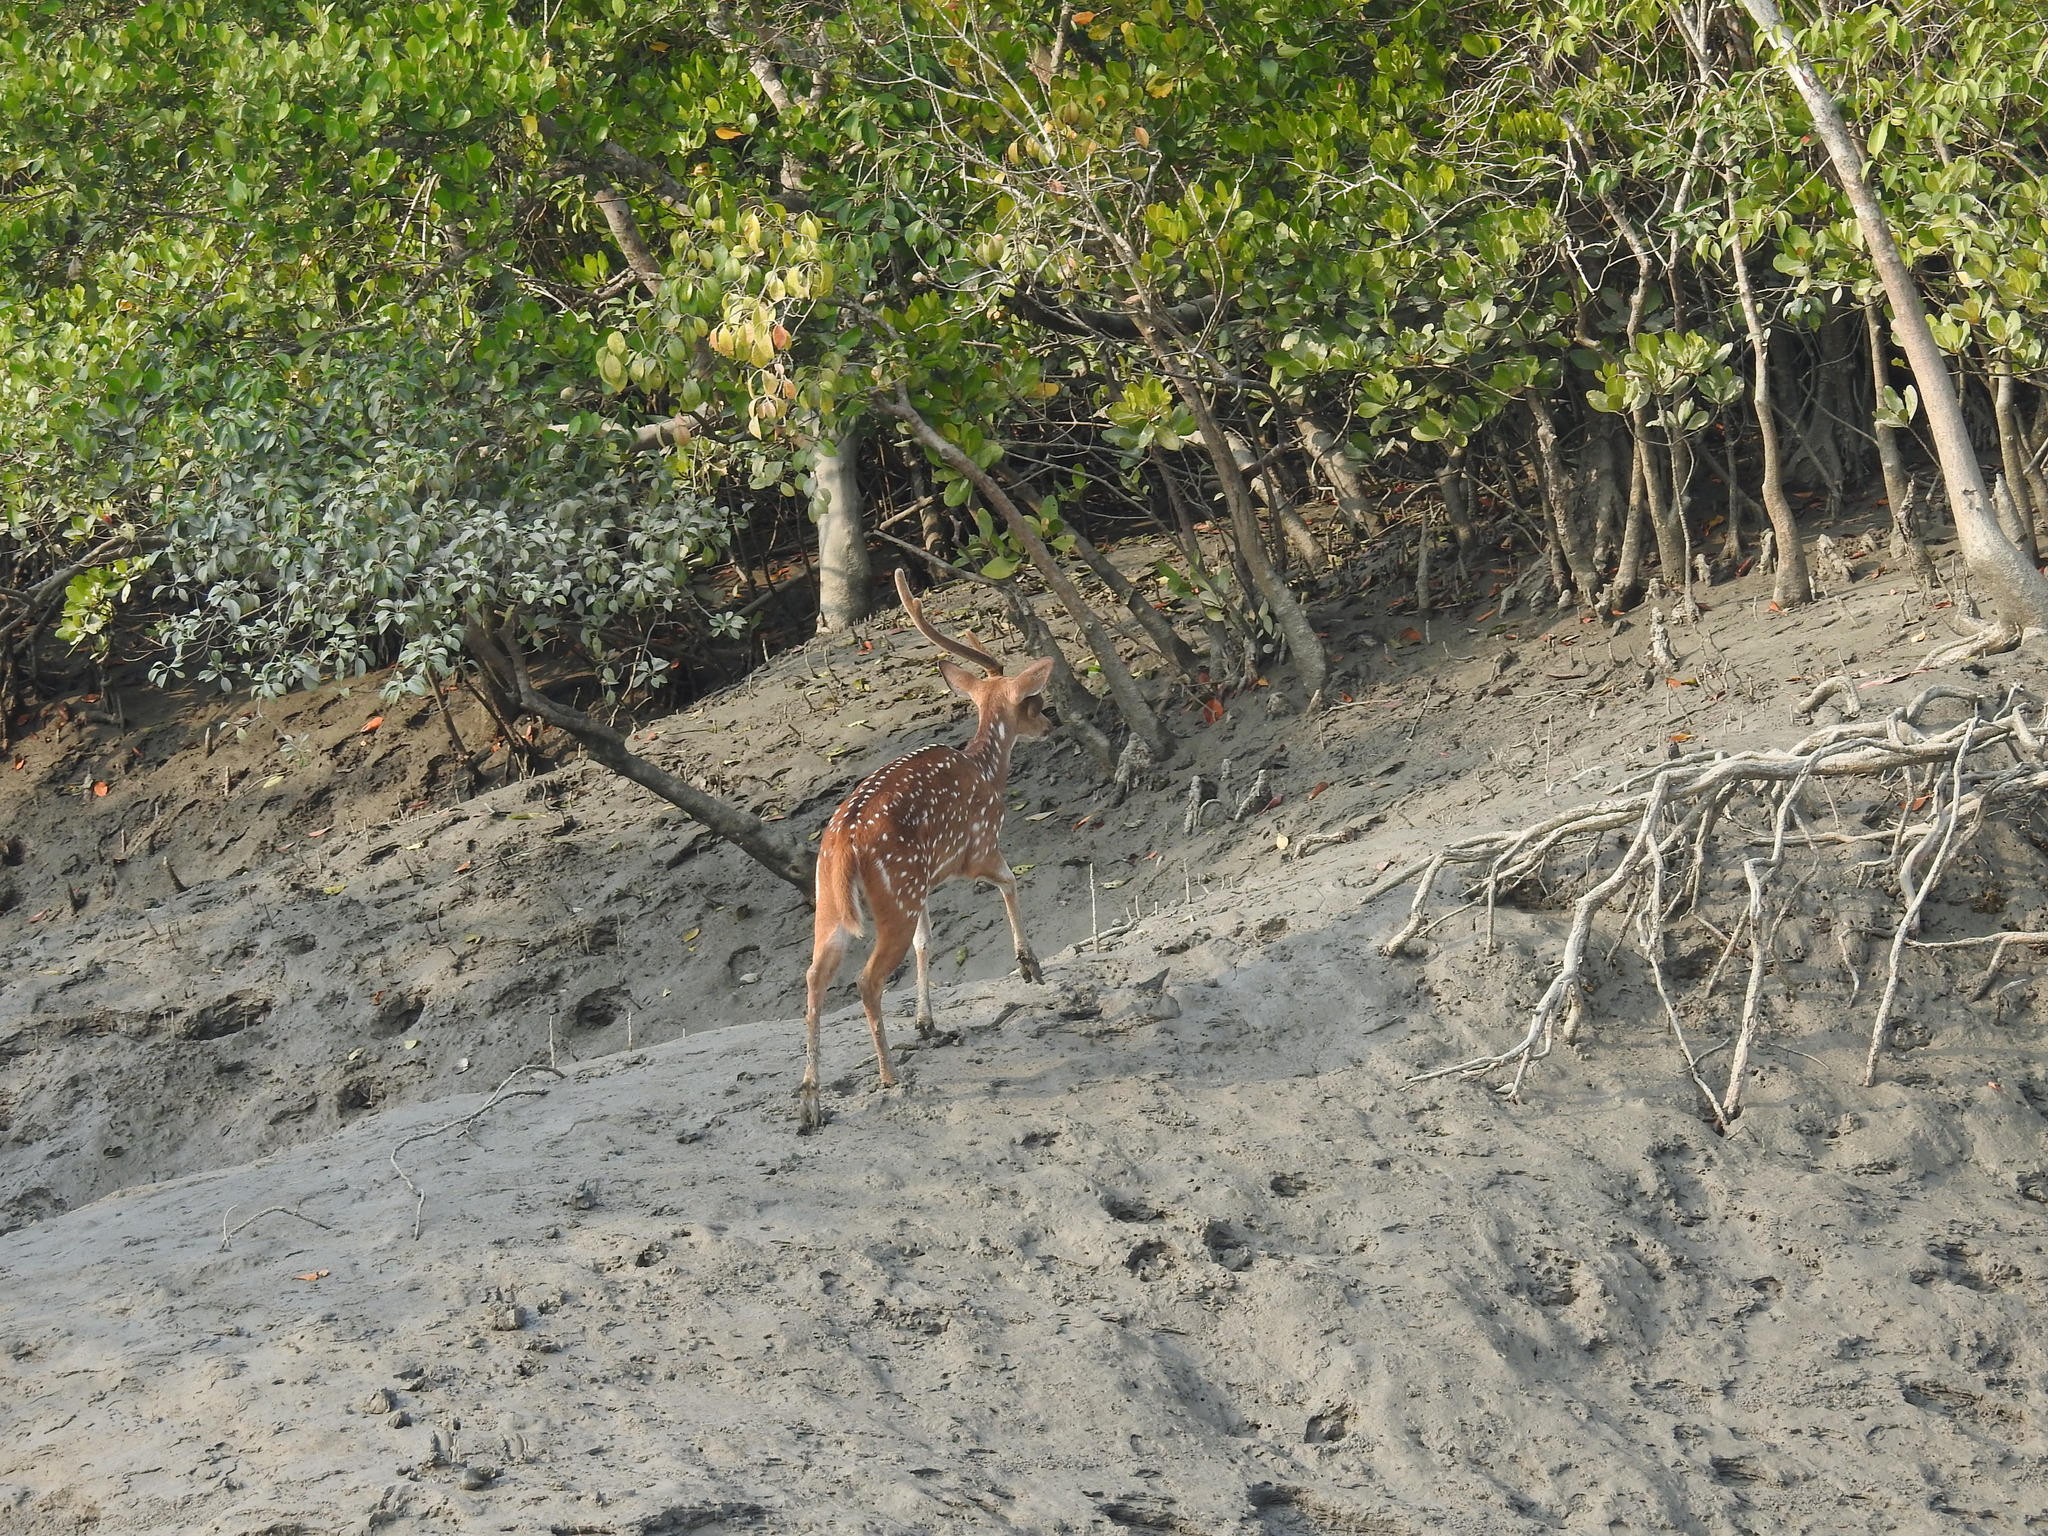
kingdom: Animalia
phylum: Chordata
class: Mammalia
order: Artiodactyla
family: Cervidae
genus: Axis
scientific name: Axis axis
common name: Chital
